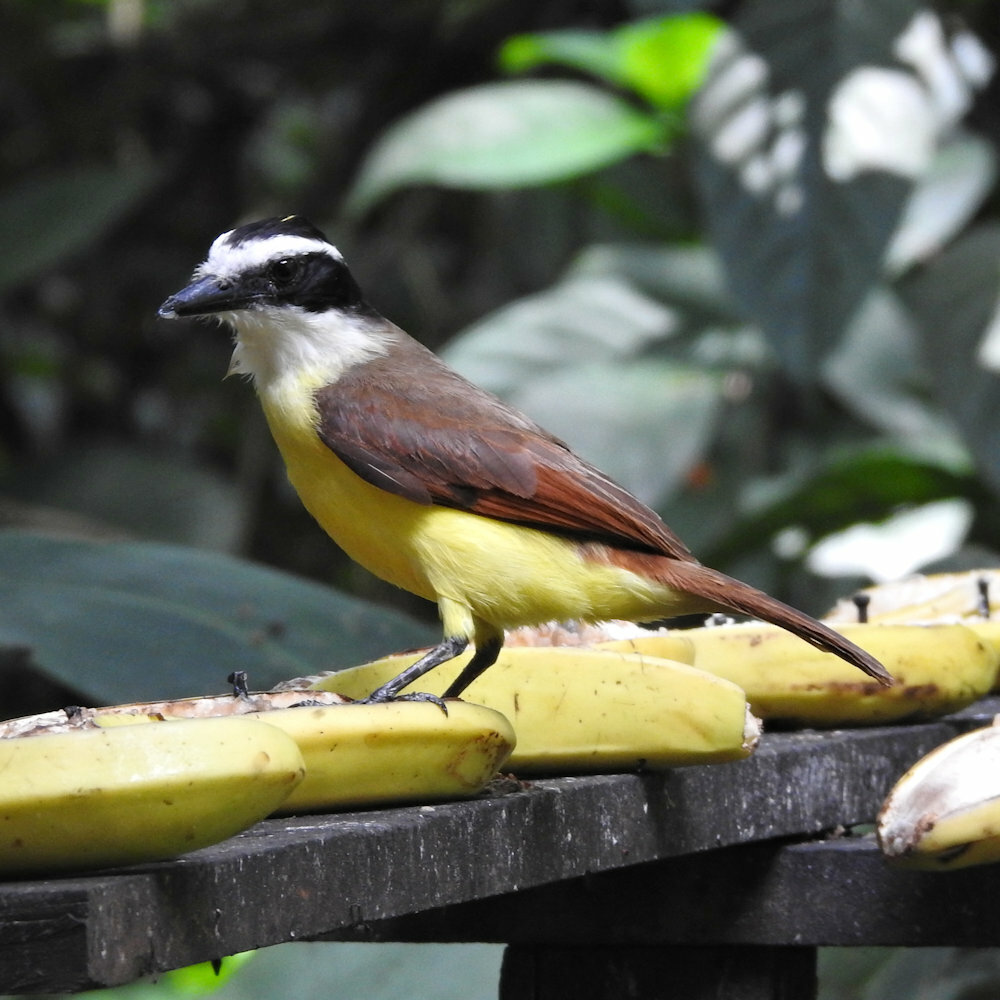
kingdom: Animalia
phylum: Chordata
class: Aves
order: Passeriformes
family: Tyrannidae
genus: Pitangus
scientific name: Pitangus sulphuratus
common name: Great kiskadee
